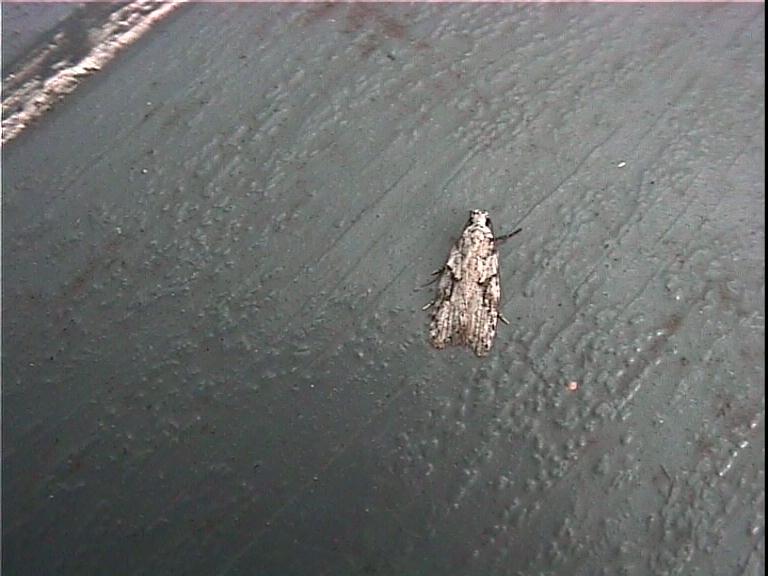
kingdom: Animalia
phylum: Arthropoda
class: Insecta
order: Lepidoptera
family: Oecophoridae
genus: Izatha
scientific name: Izatha mesoschista
